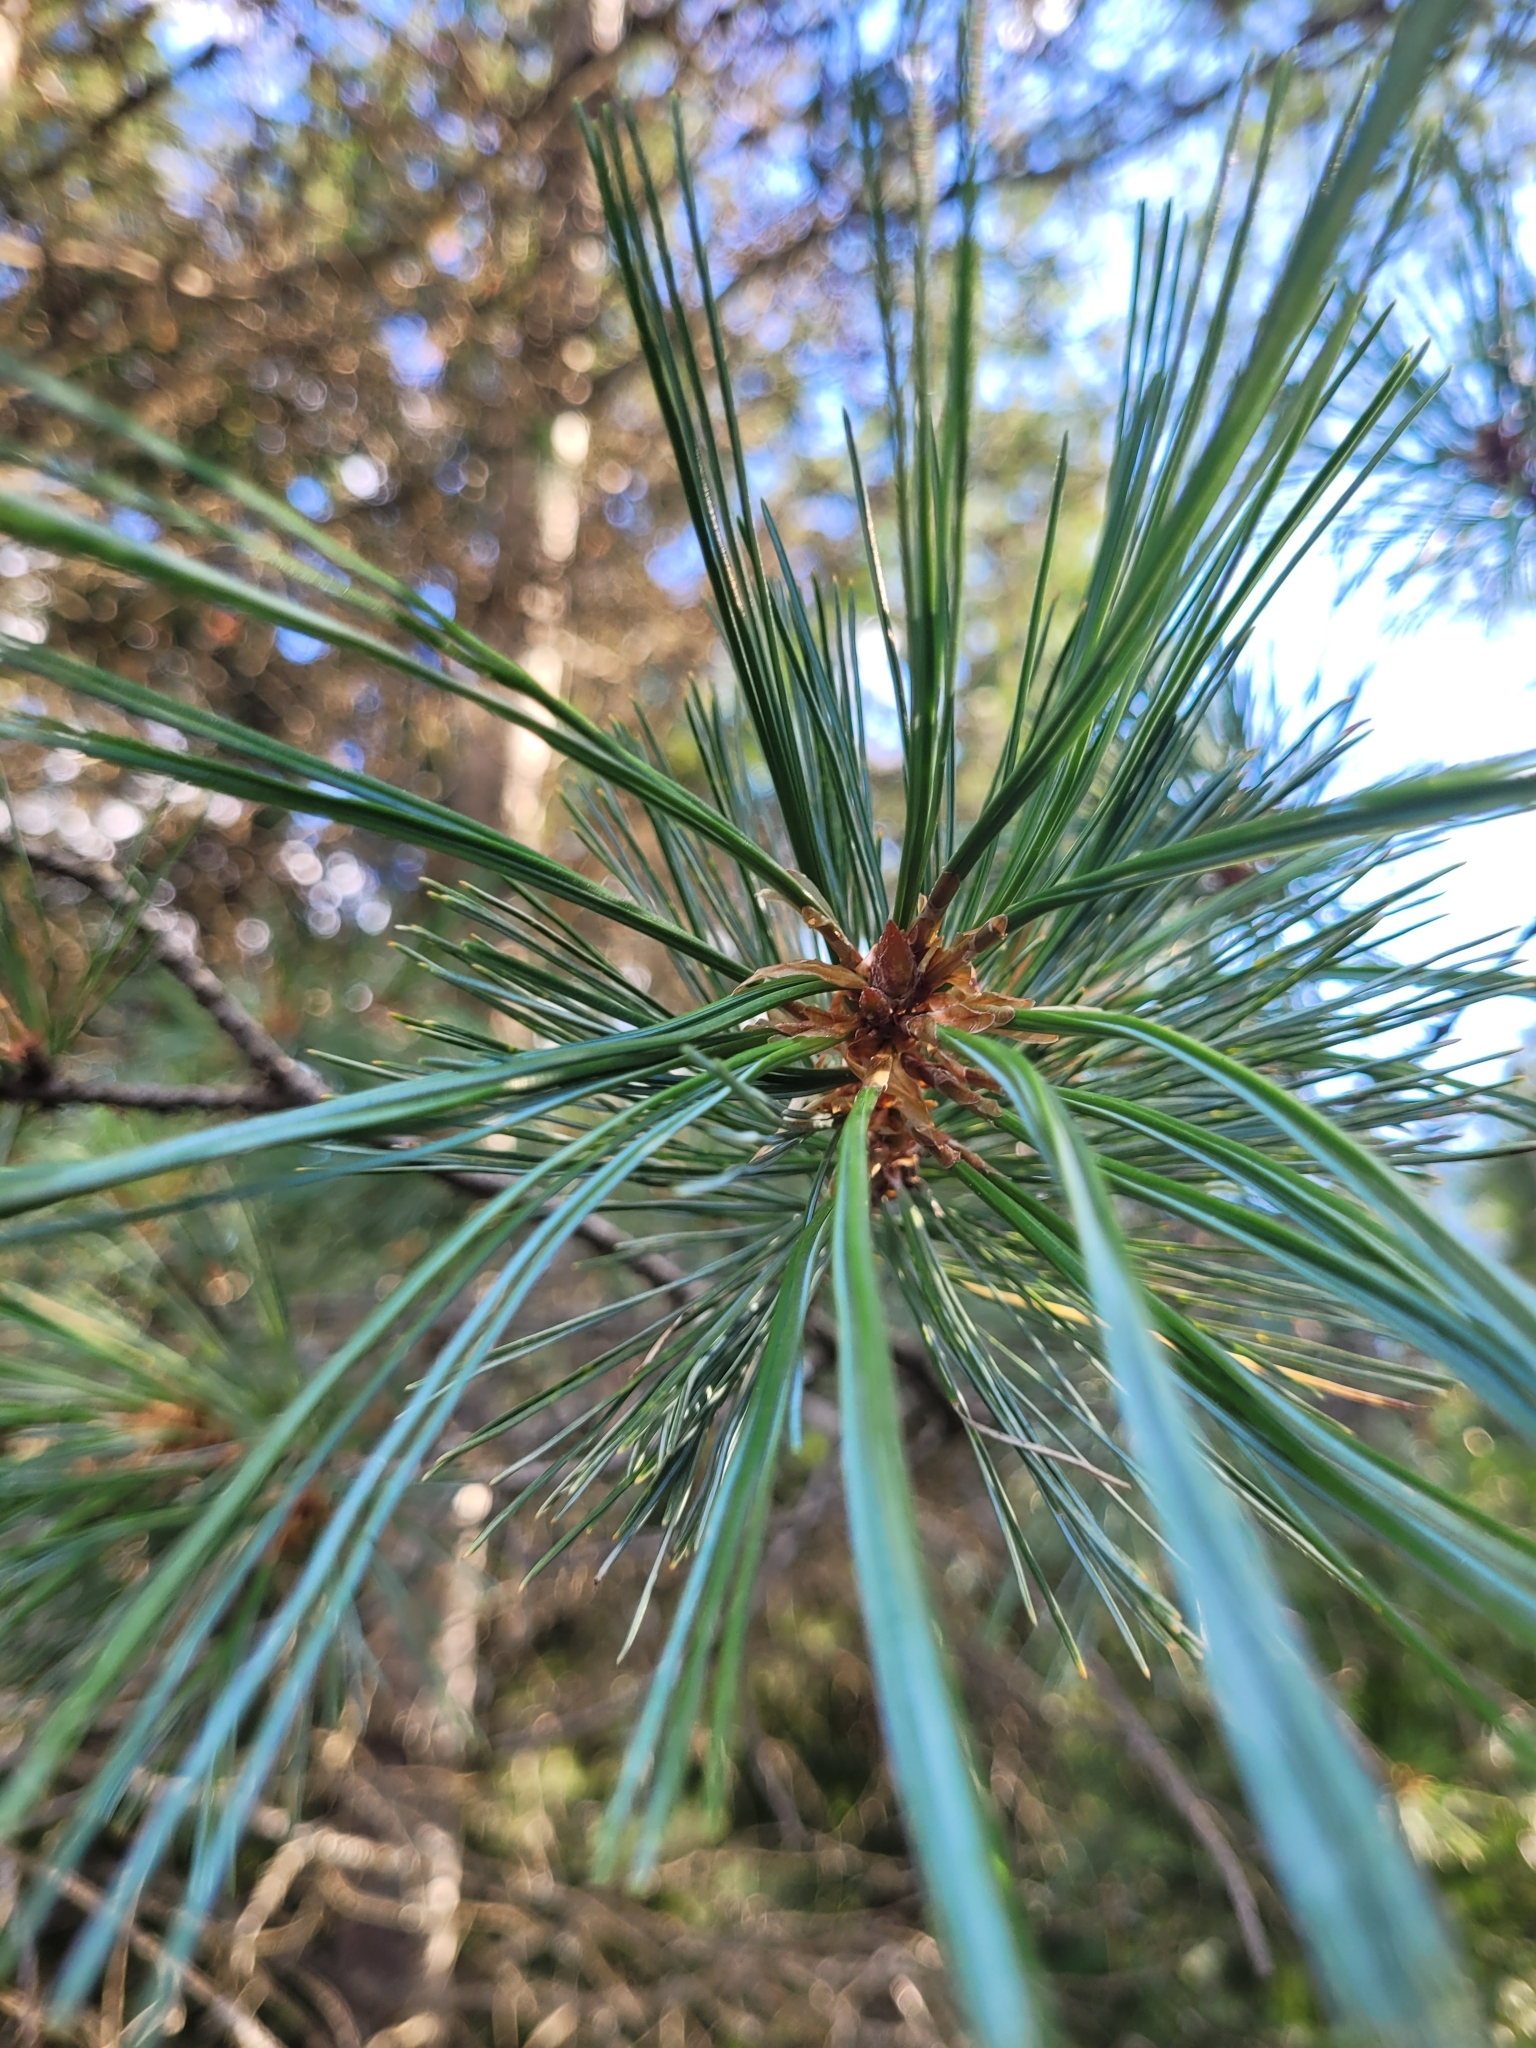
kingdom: Plantae
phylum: Tracheophyta
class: Pinopsida
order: Pinales
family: Pinaceae
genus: Pinus
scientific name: Pinus monticola
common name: Western white pine
